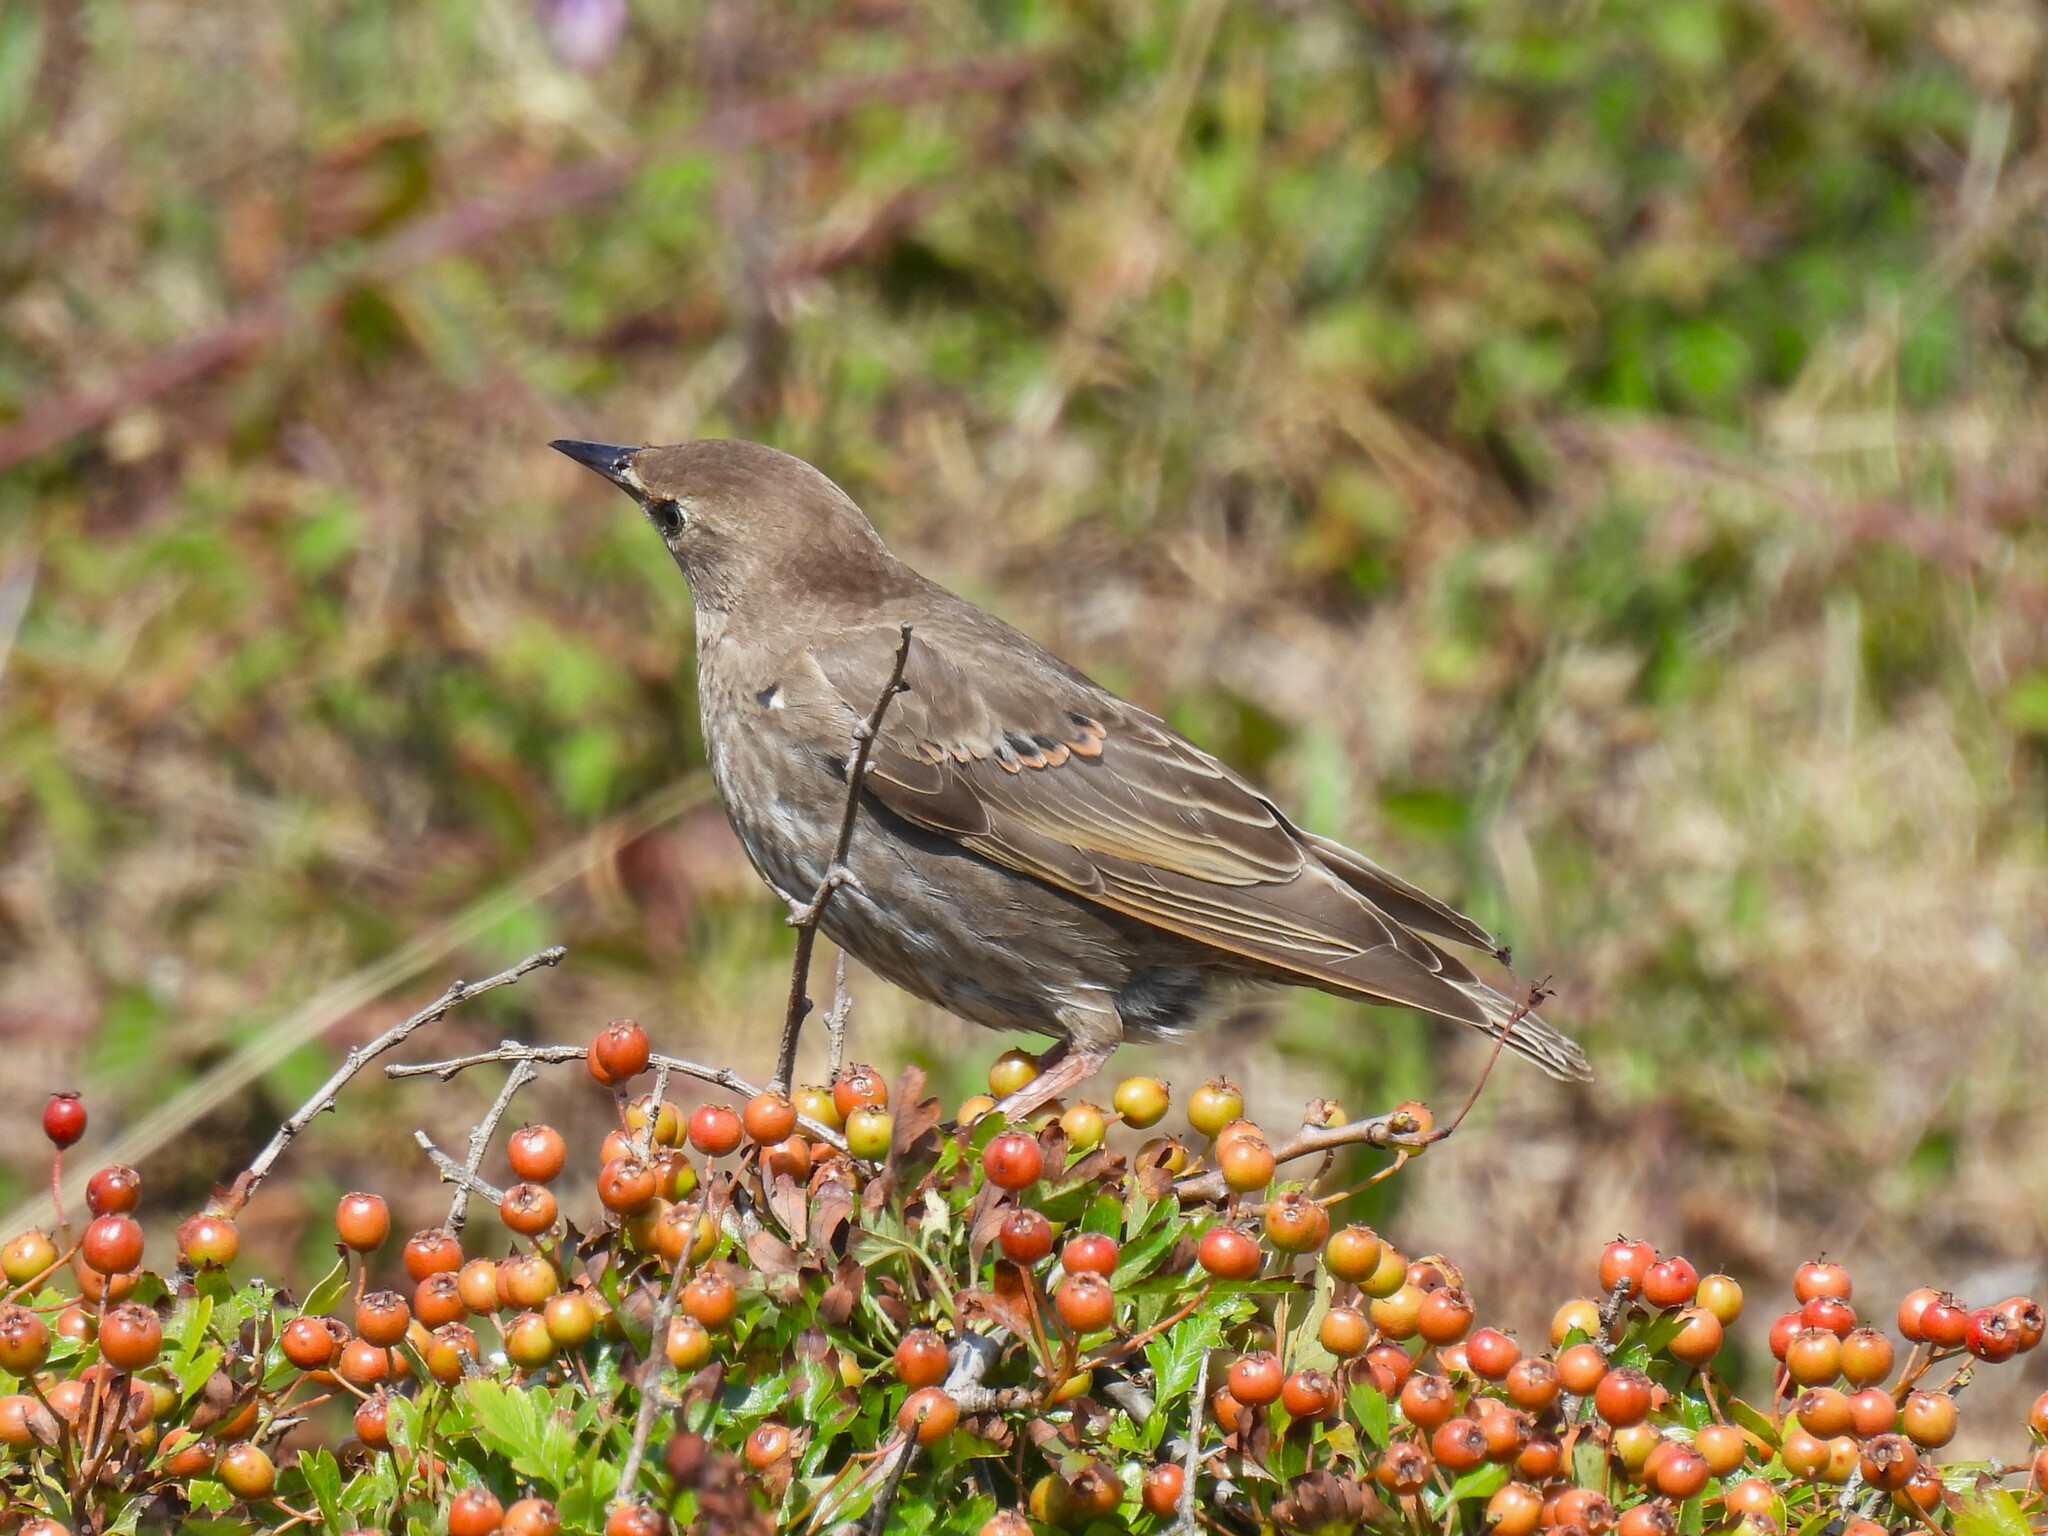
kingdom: Animalia
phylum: Chordata
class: Aves
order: Passeriformes
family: Sturnidae
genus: Sturnus
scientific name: Sturnus vulgaris
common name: Common starling
